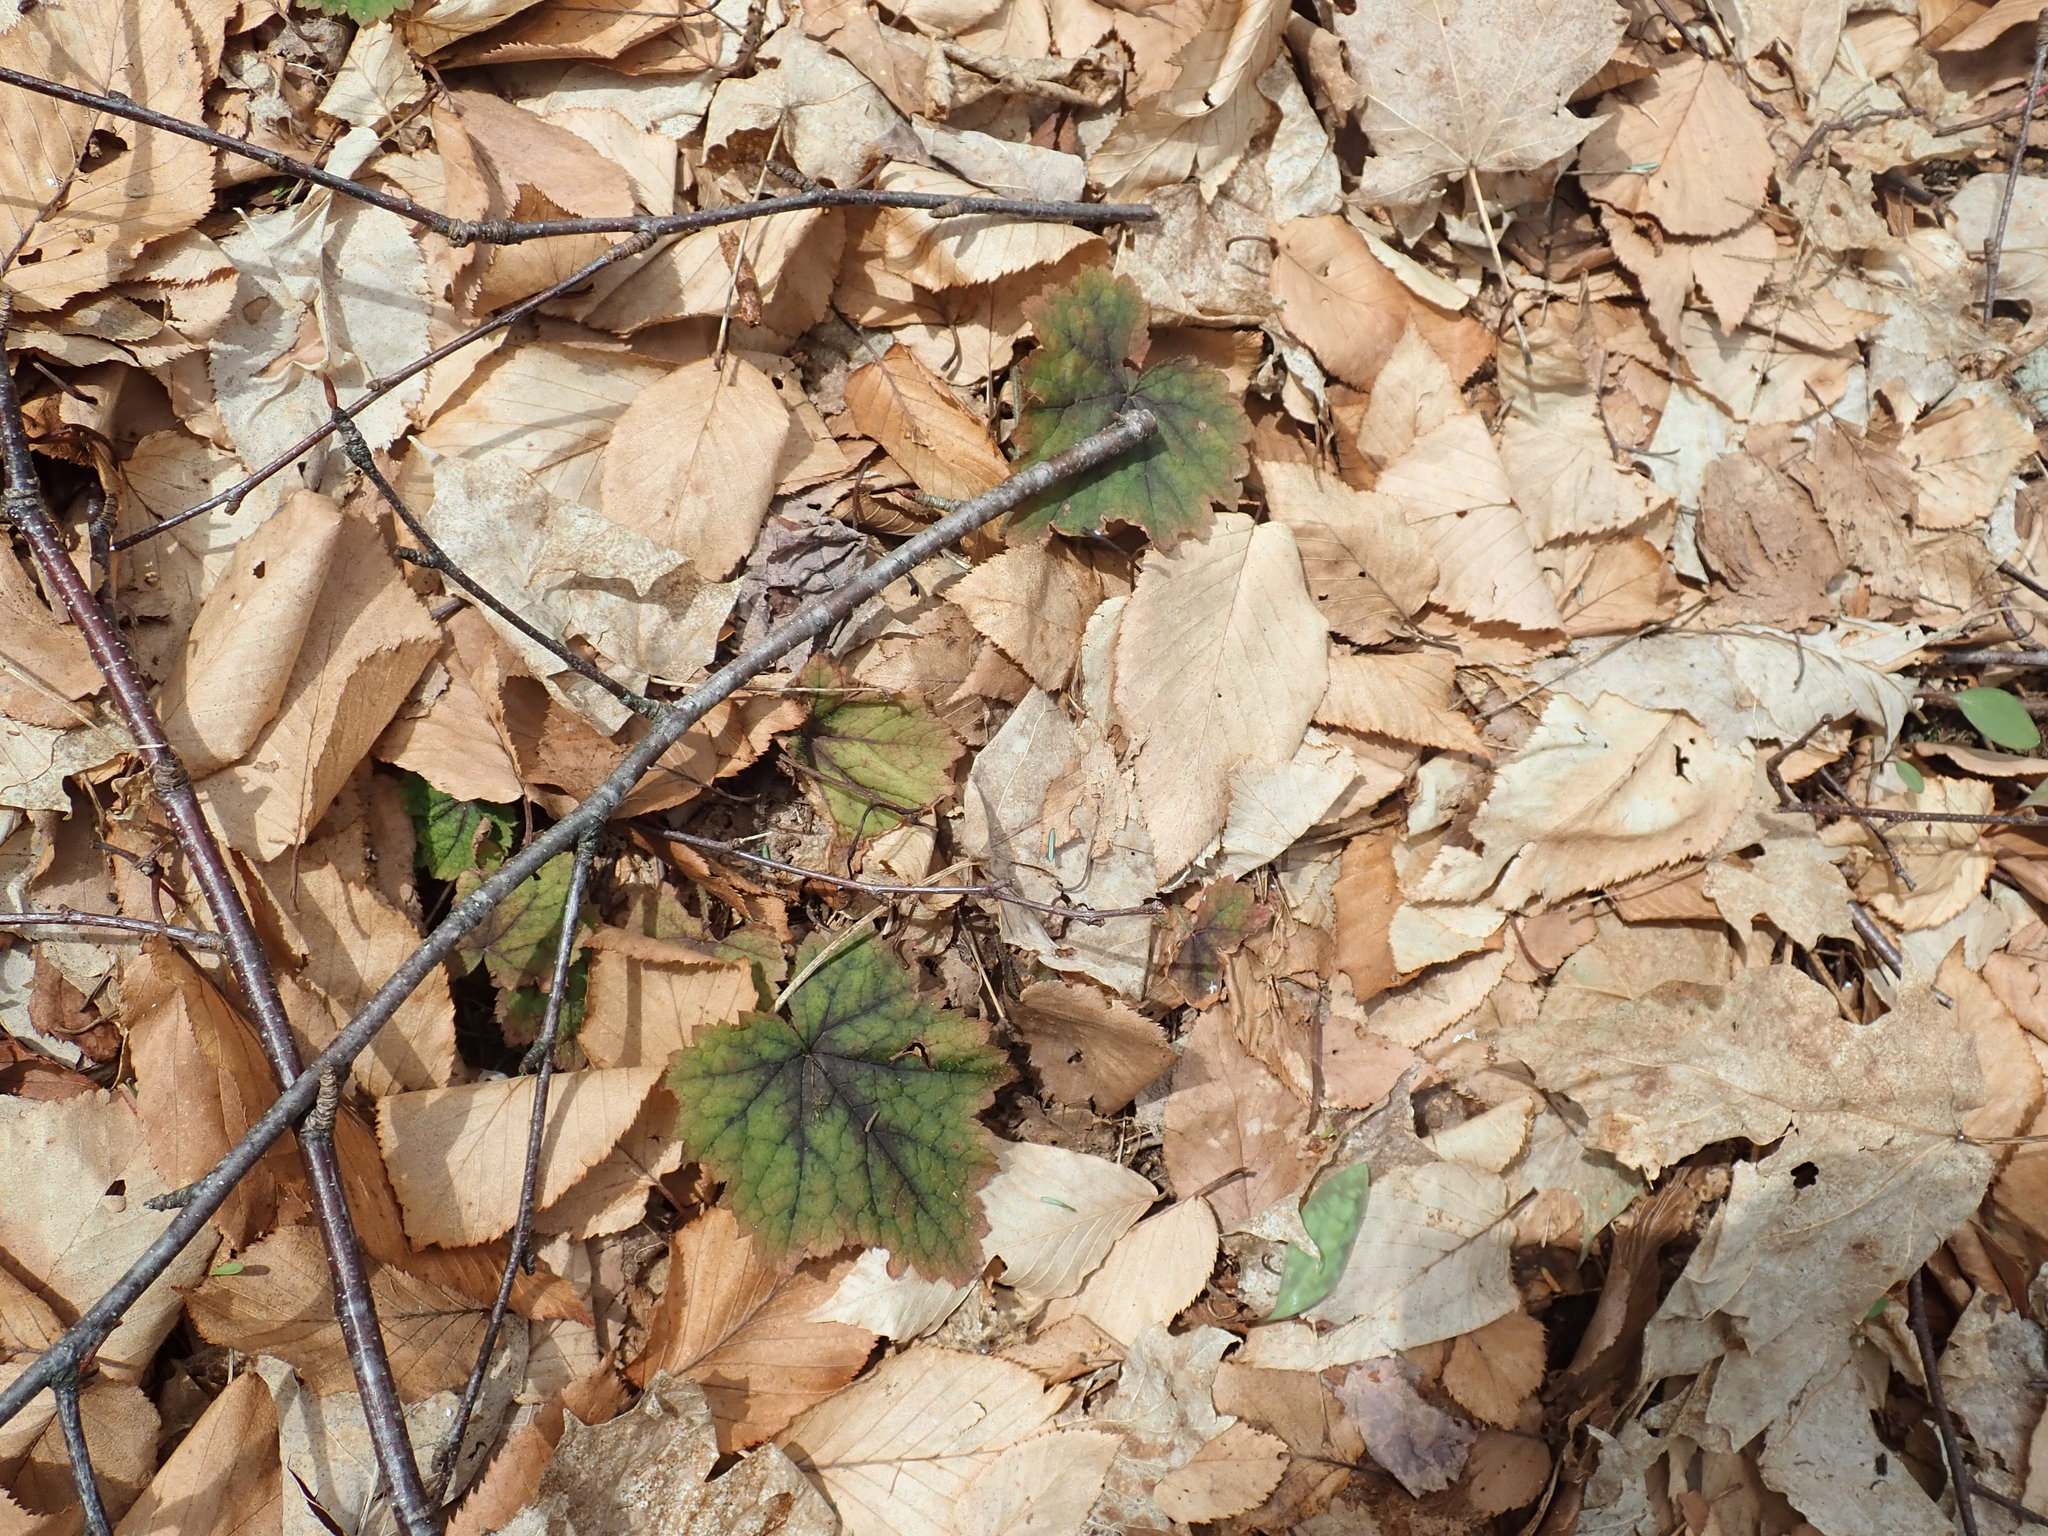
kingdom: Plantae
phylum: Tracheophyta
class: Magnoliopsida
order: Saxifragales
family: Saxifragaceae
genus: Tiarella
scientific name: Tiarella stolonifera
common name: Stoloniferous foamflower
